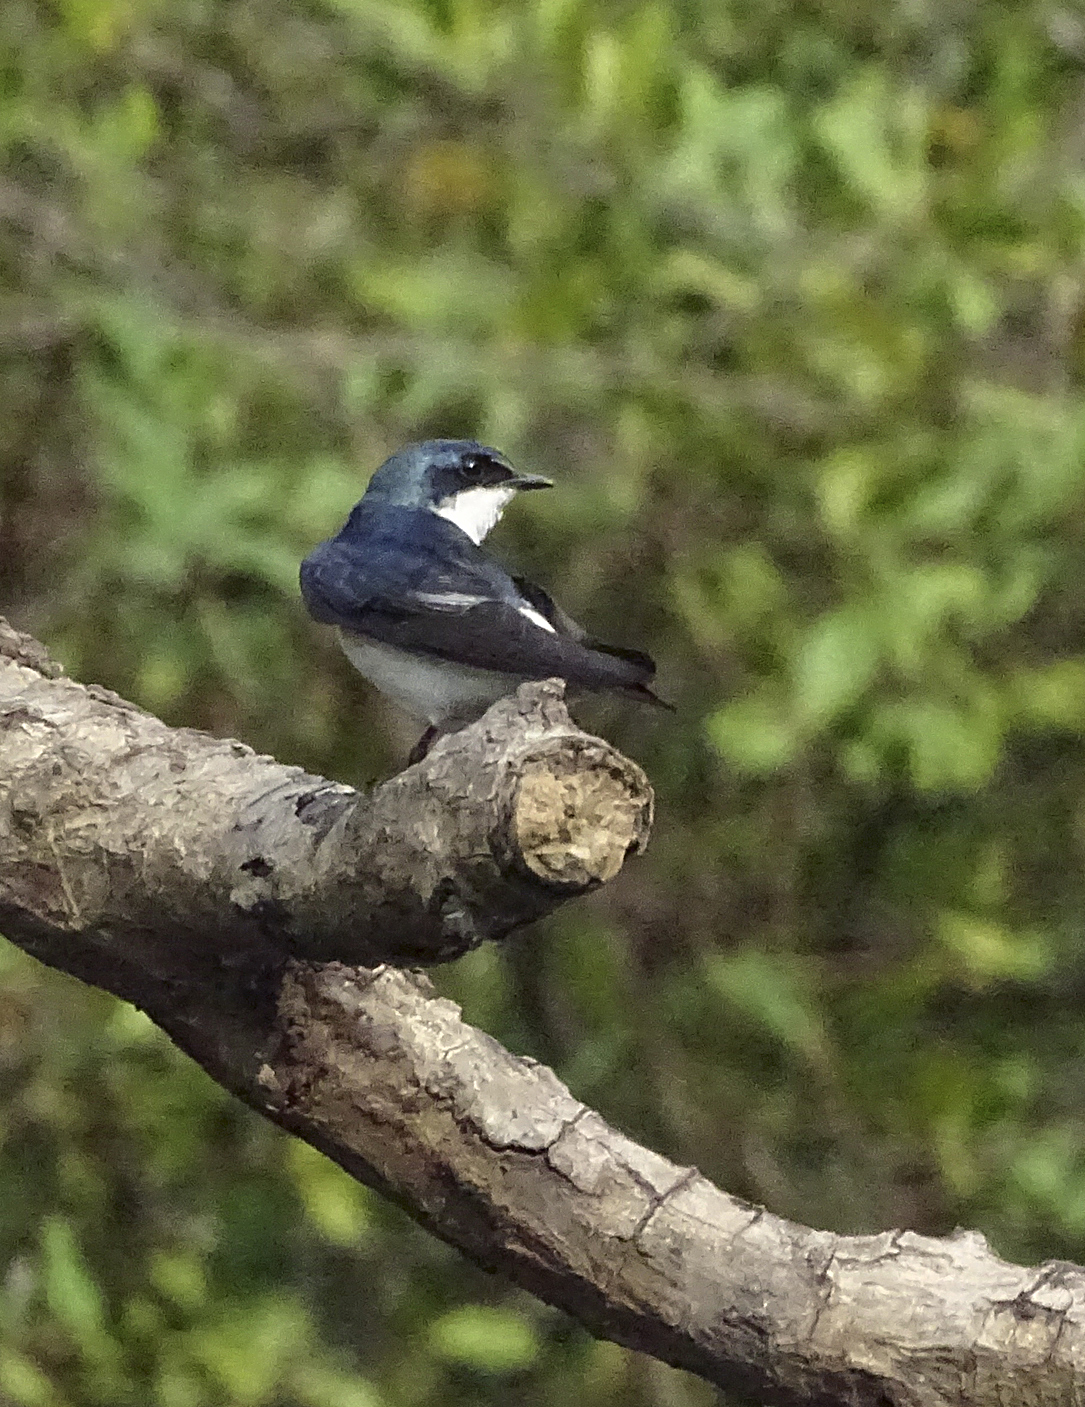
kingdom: Animalia
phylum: Chordata
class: Aves
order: Passeriformes
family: Hirundinidae
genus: Tachycineta
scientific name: Tachycineta albilinea
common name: Mangrove swallow
